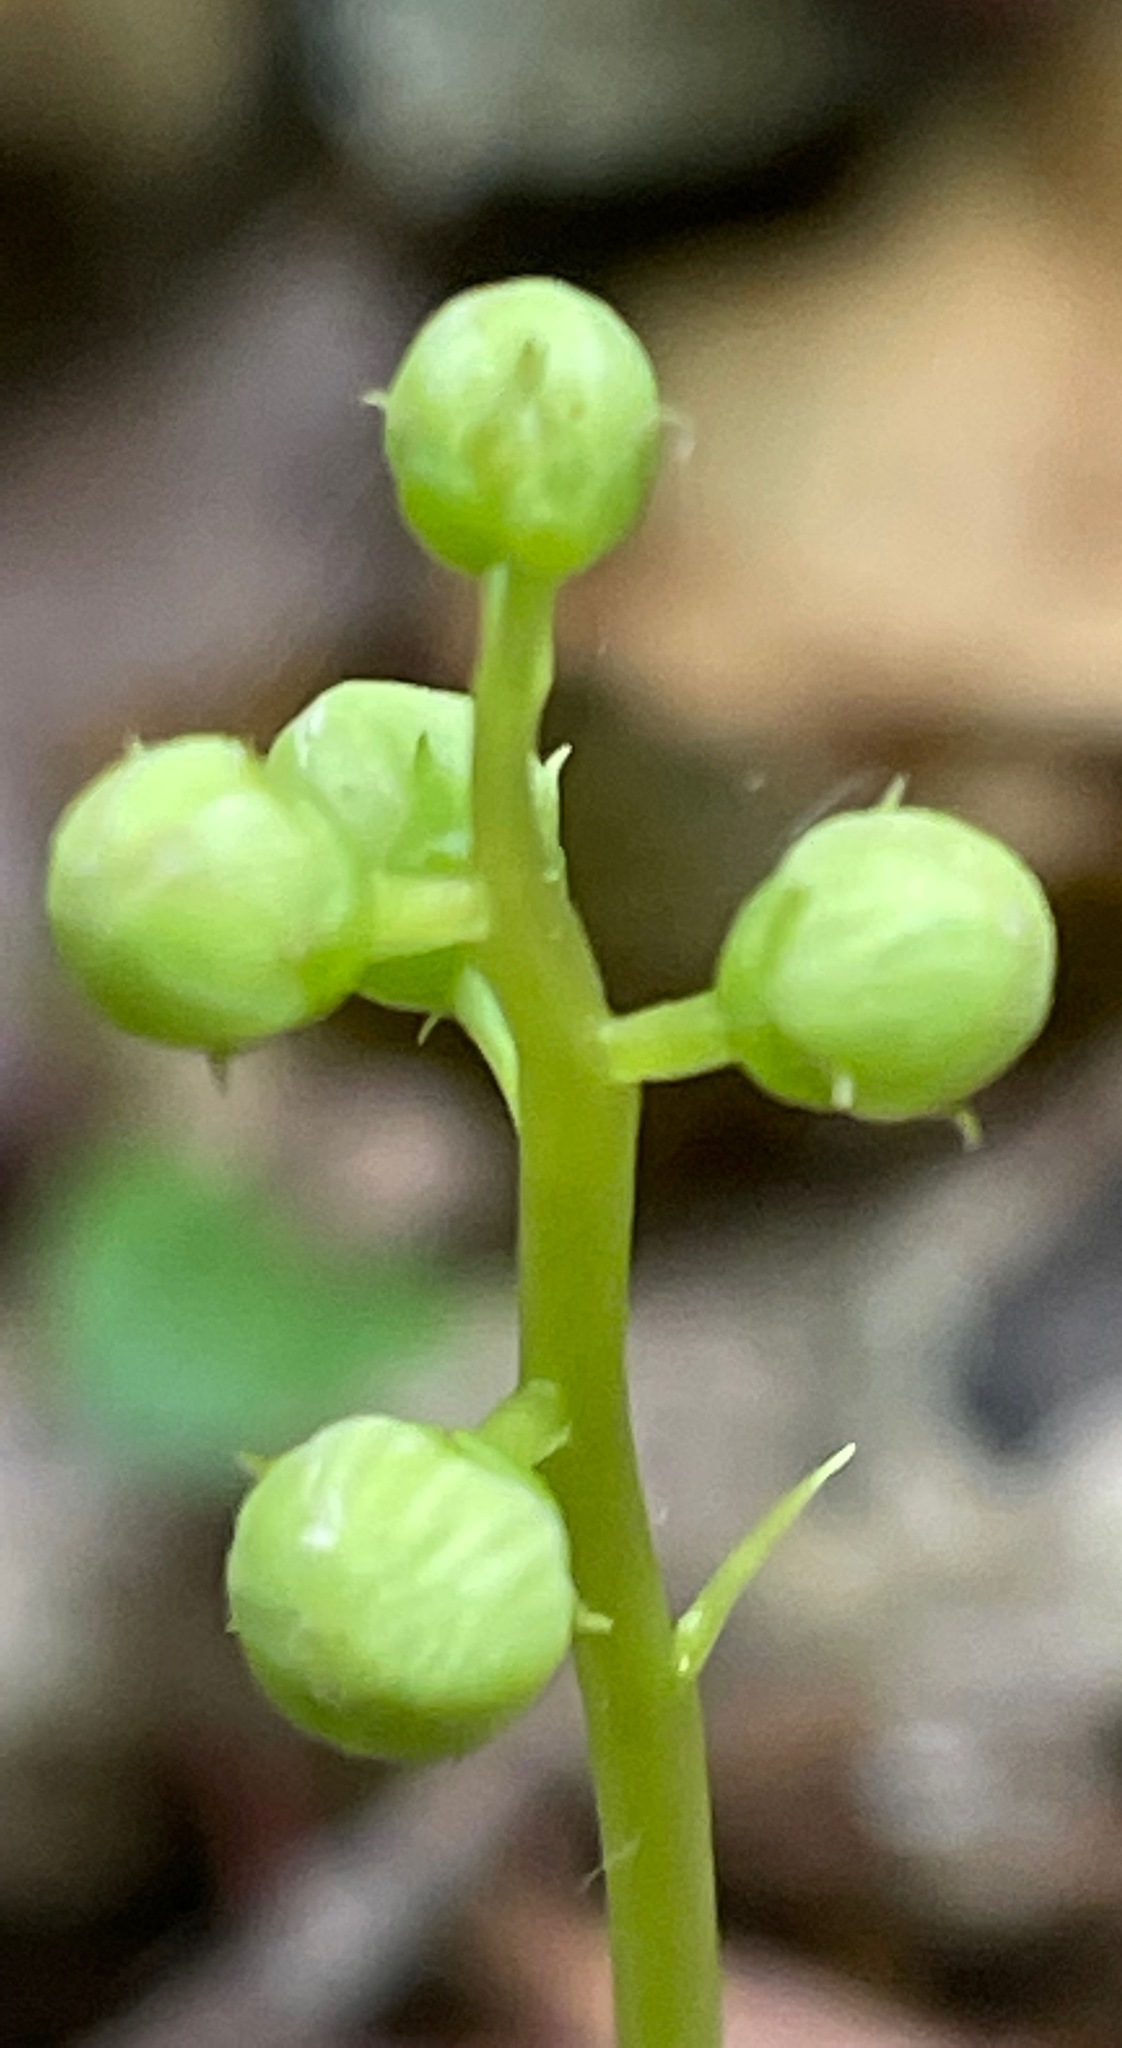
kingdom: Plantae
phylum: Tracheophyta
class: Magnoliopsida
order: Ericales
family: Ericaceae
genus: Pyrola
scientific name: Pyrola elliptica
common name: Shinleaf
